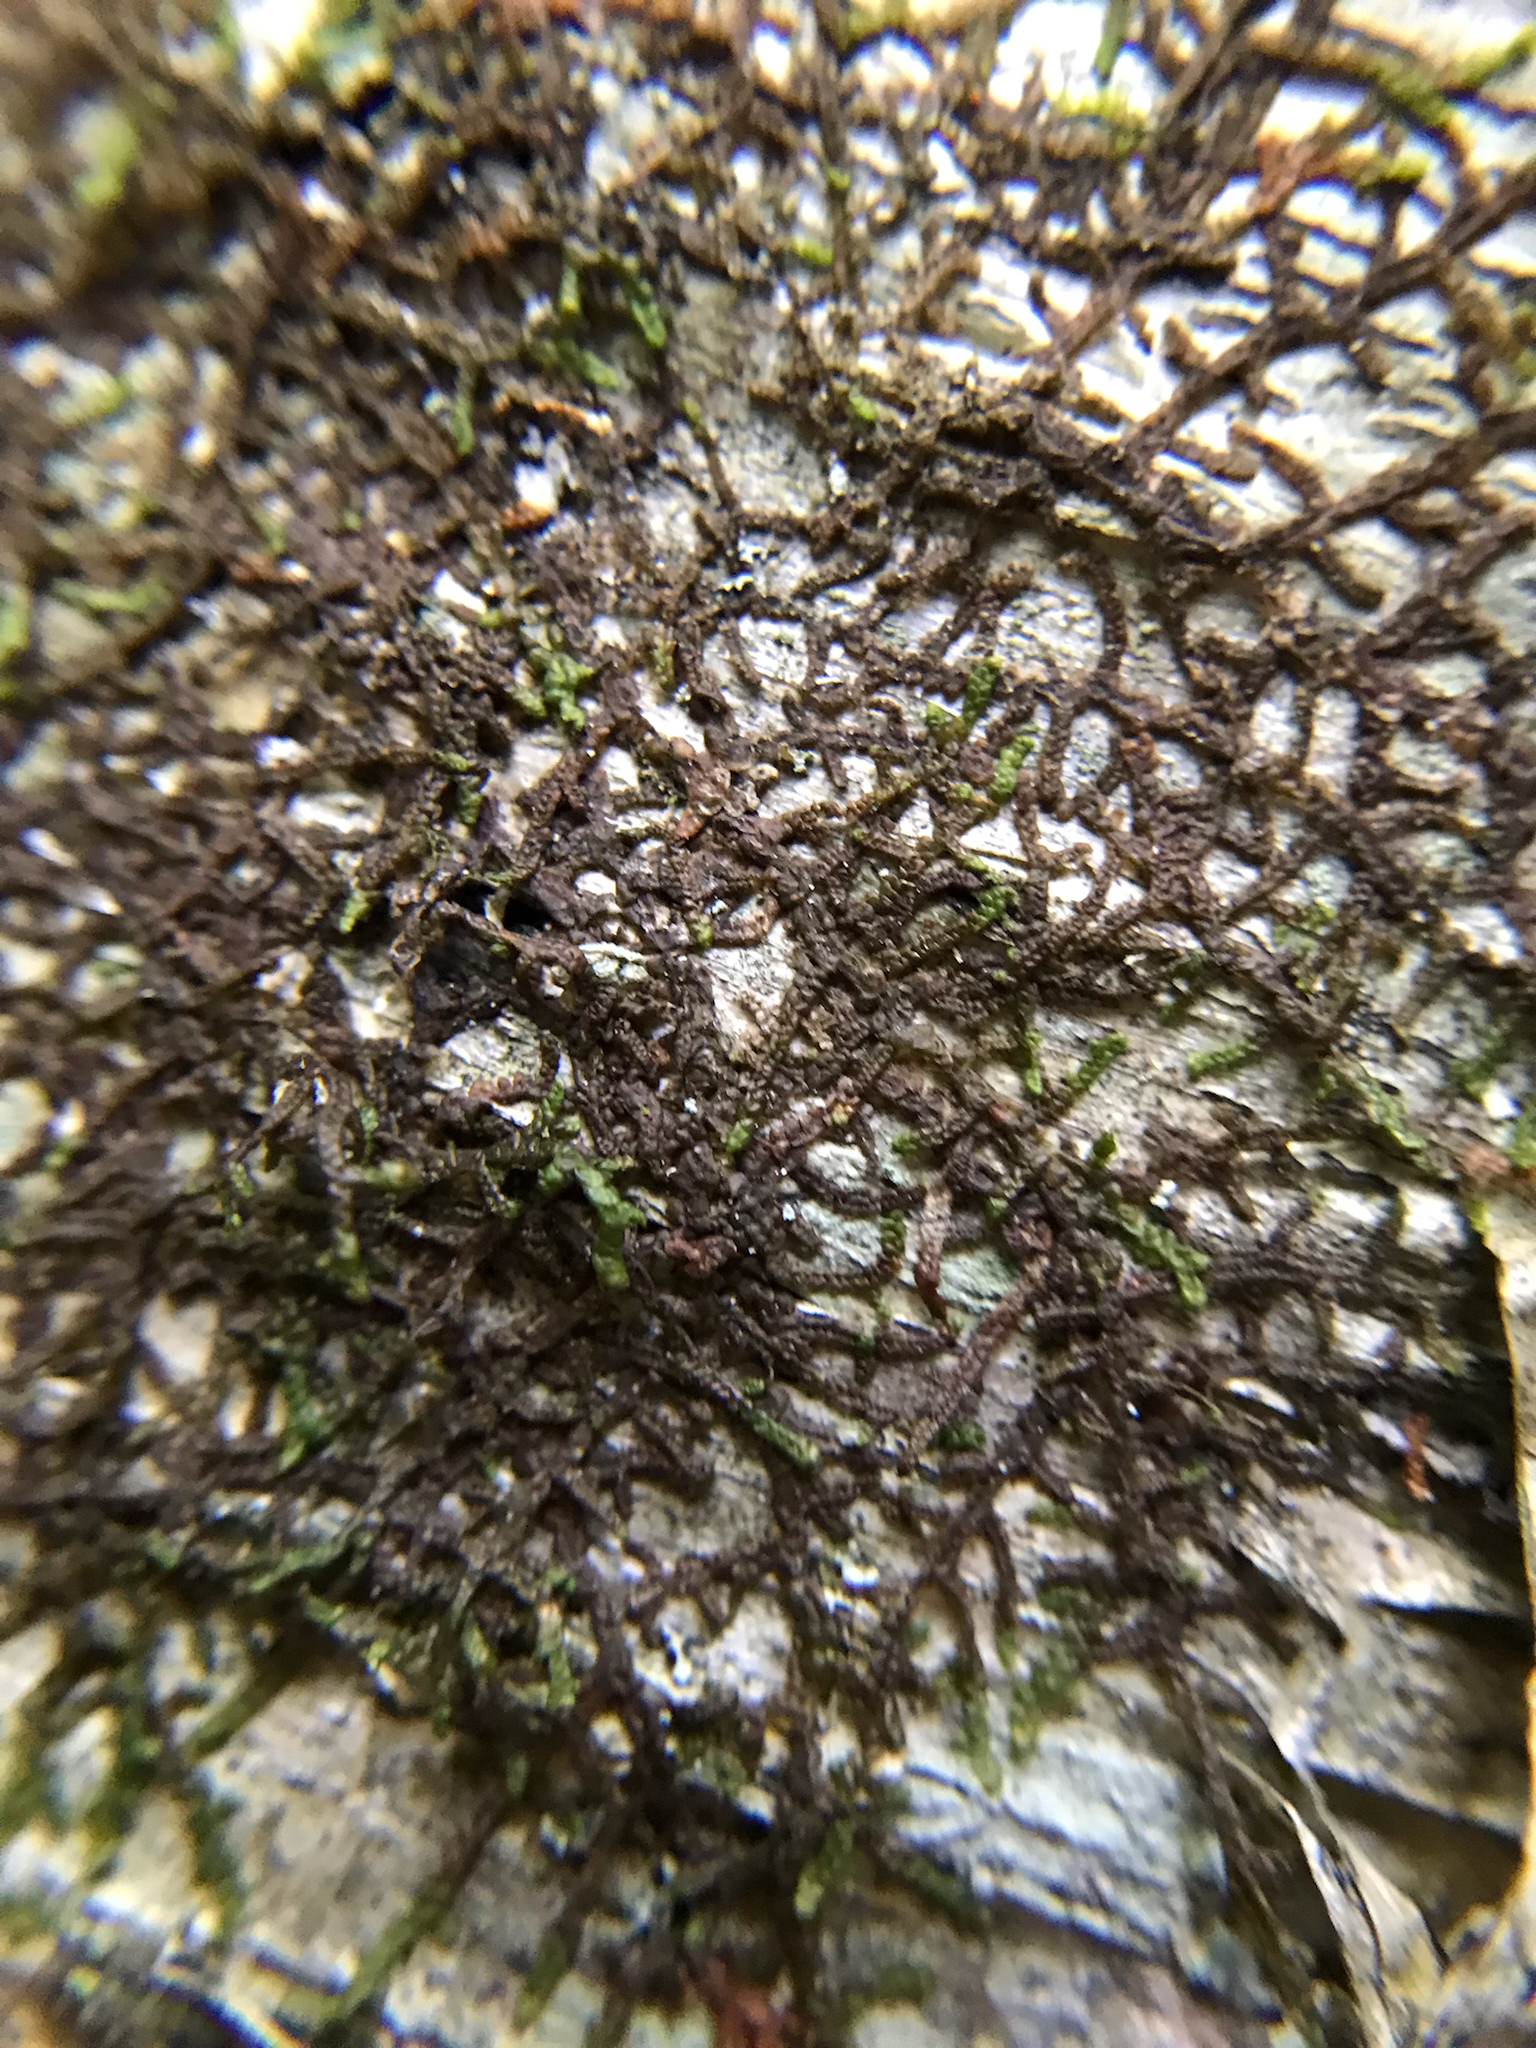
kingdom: Plantae
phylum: Marchantiophyta
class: Jungermanniopsida
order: Porellales
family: Frullaniaceae
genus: Frullania
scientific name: Frullania eboracensis
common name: New york scalewort
